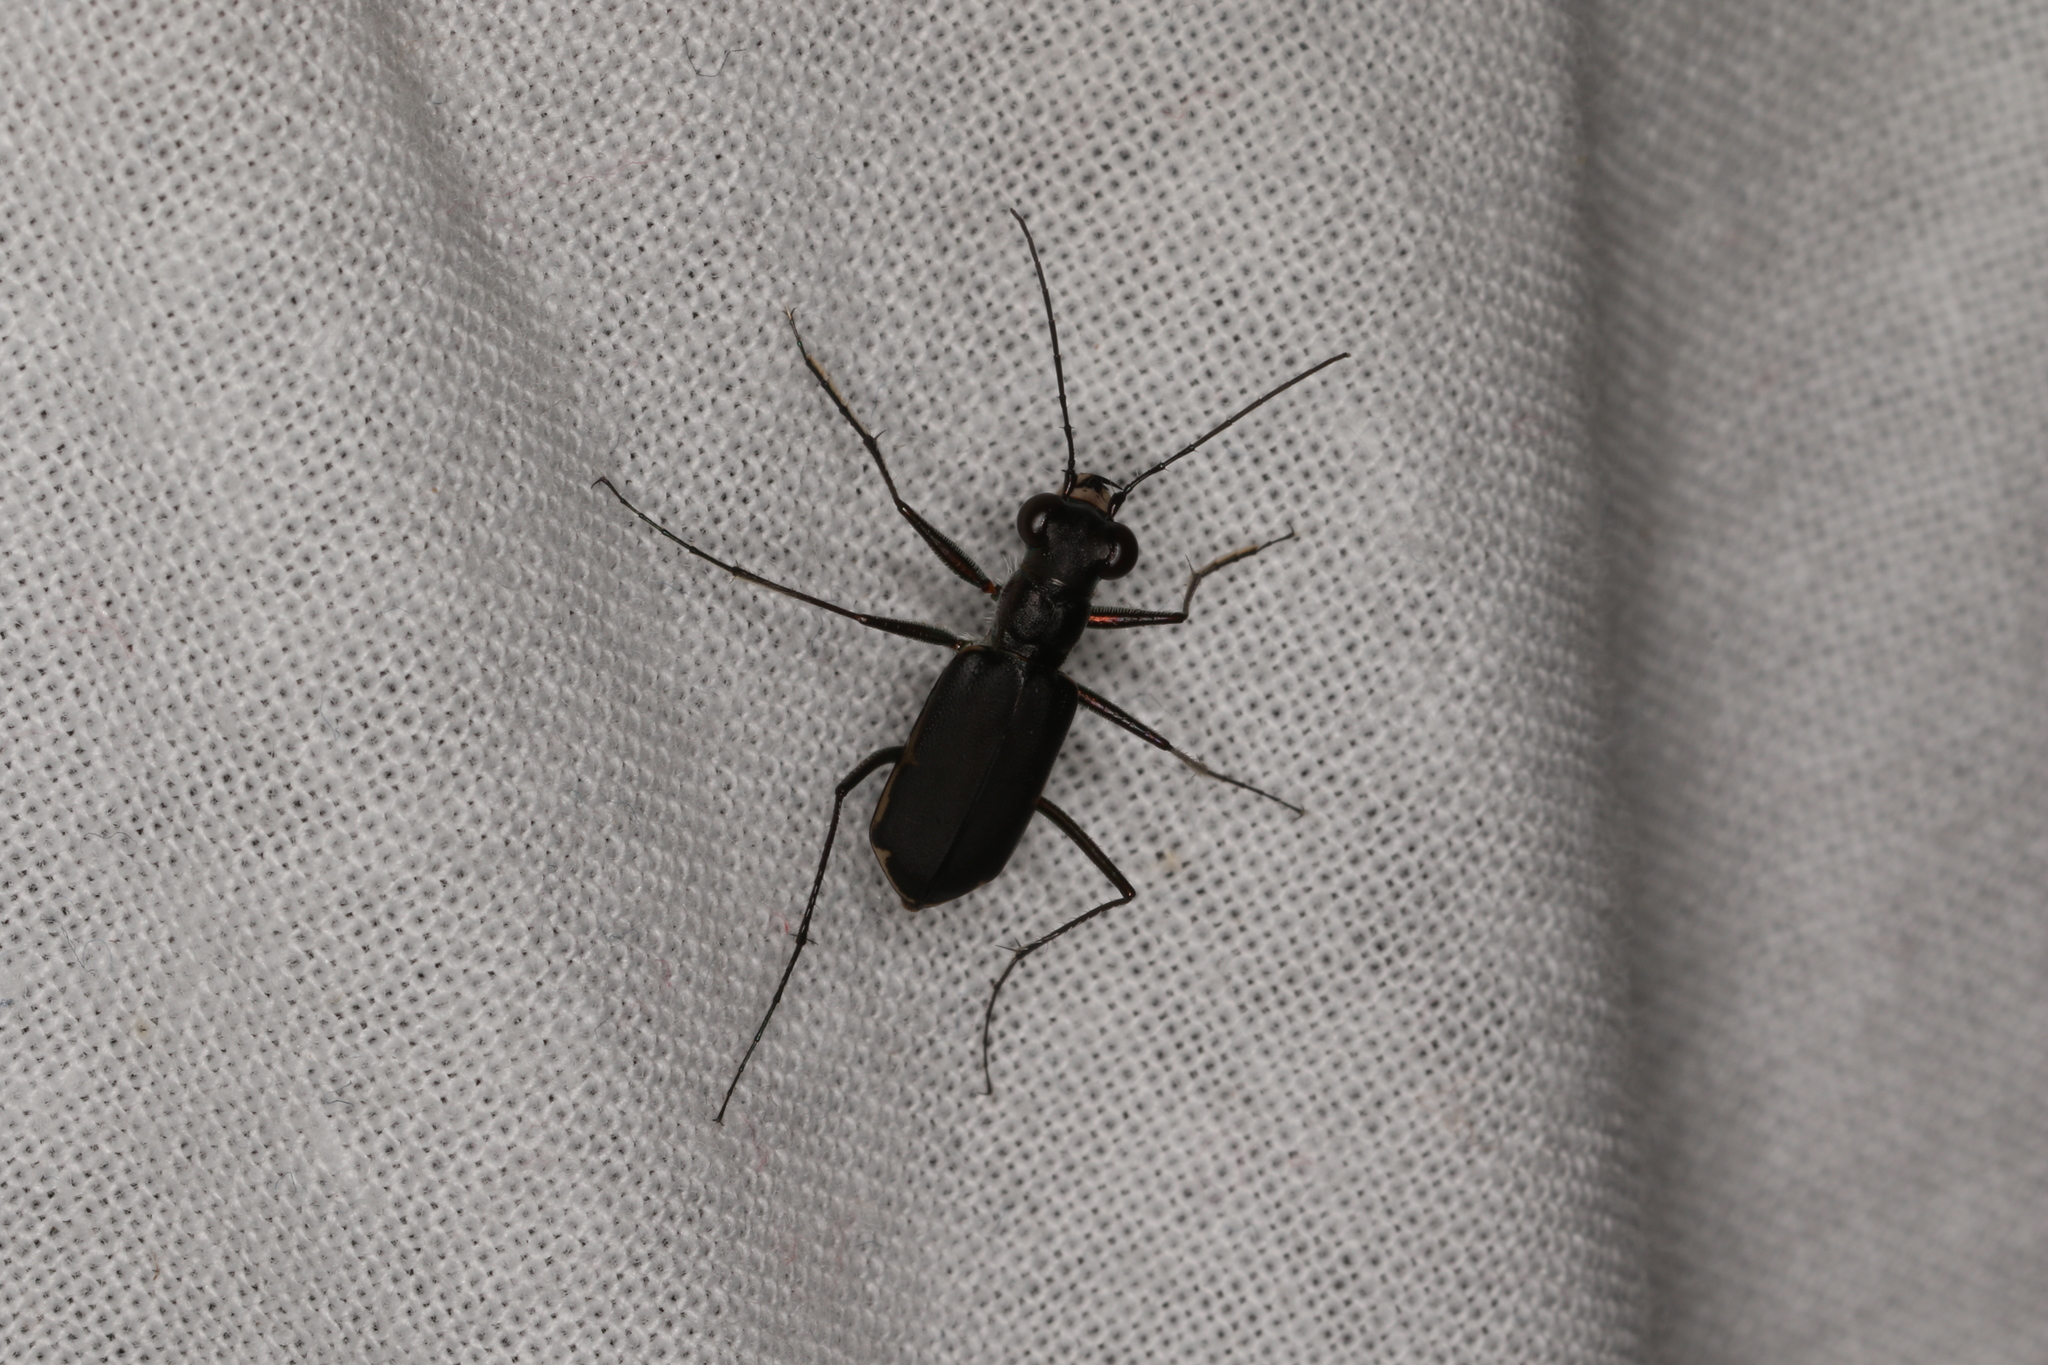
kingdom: Animalia
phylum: Arthropoda
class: Insecta
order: Coleoptera
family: Carabidae
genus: Myriochila
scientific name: Myriochila semicincta
